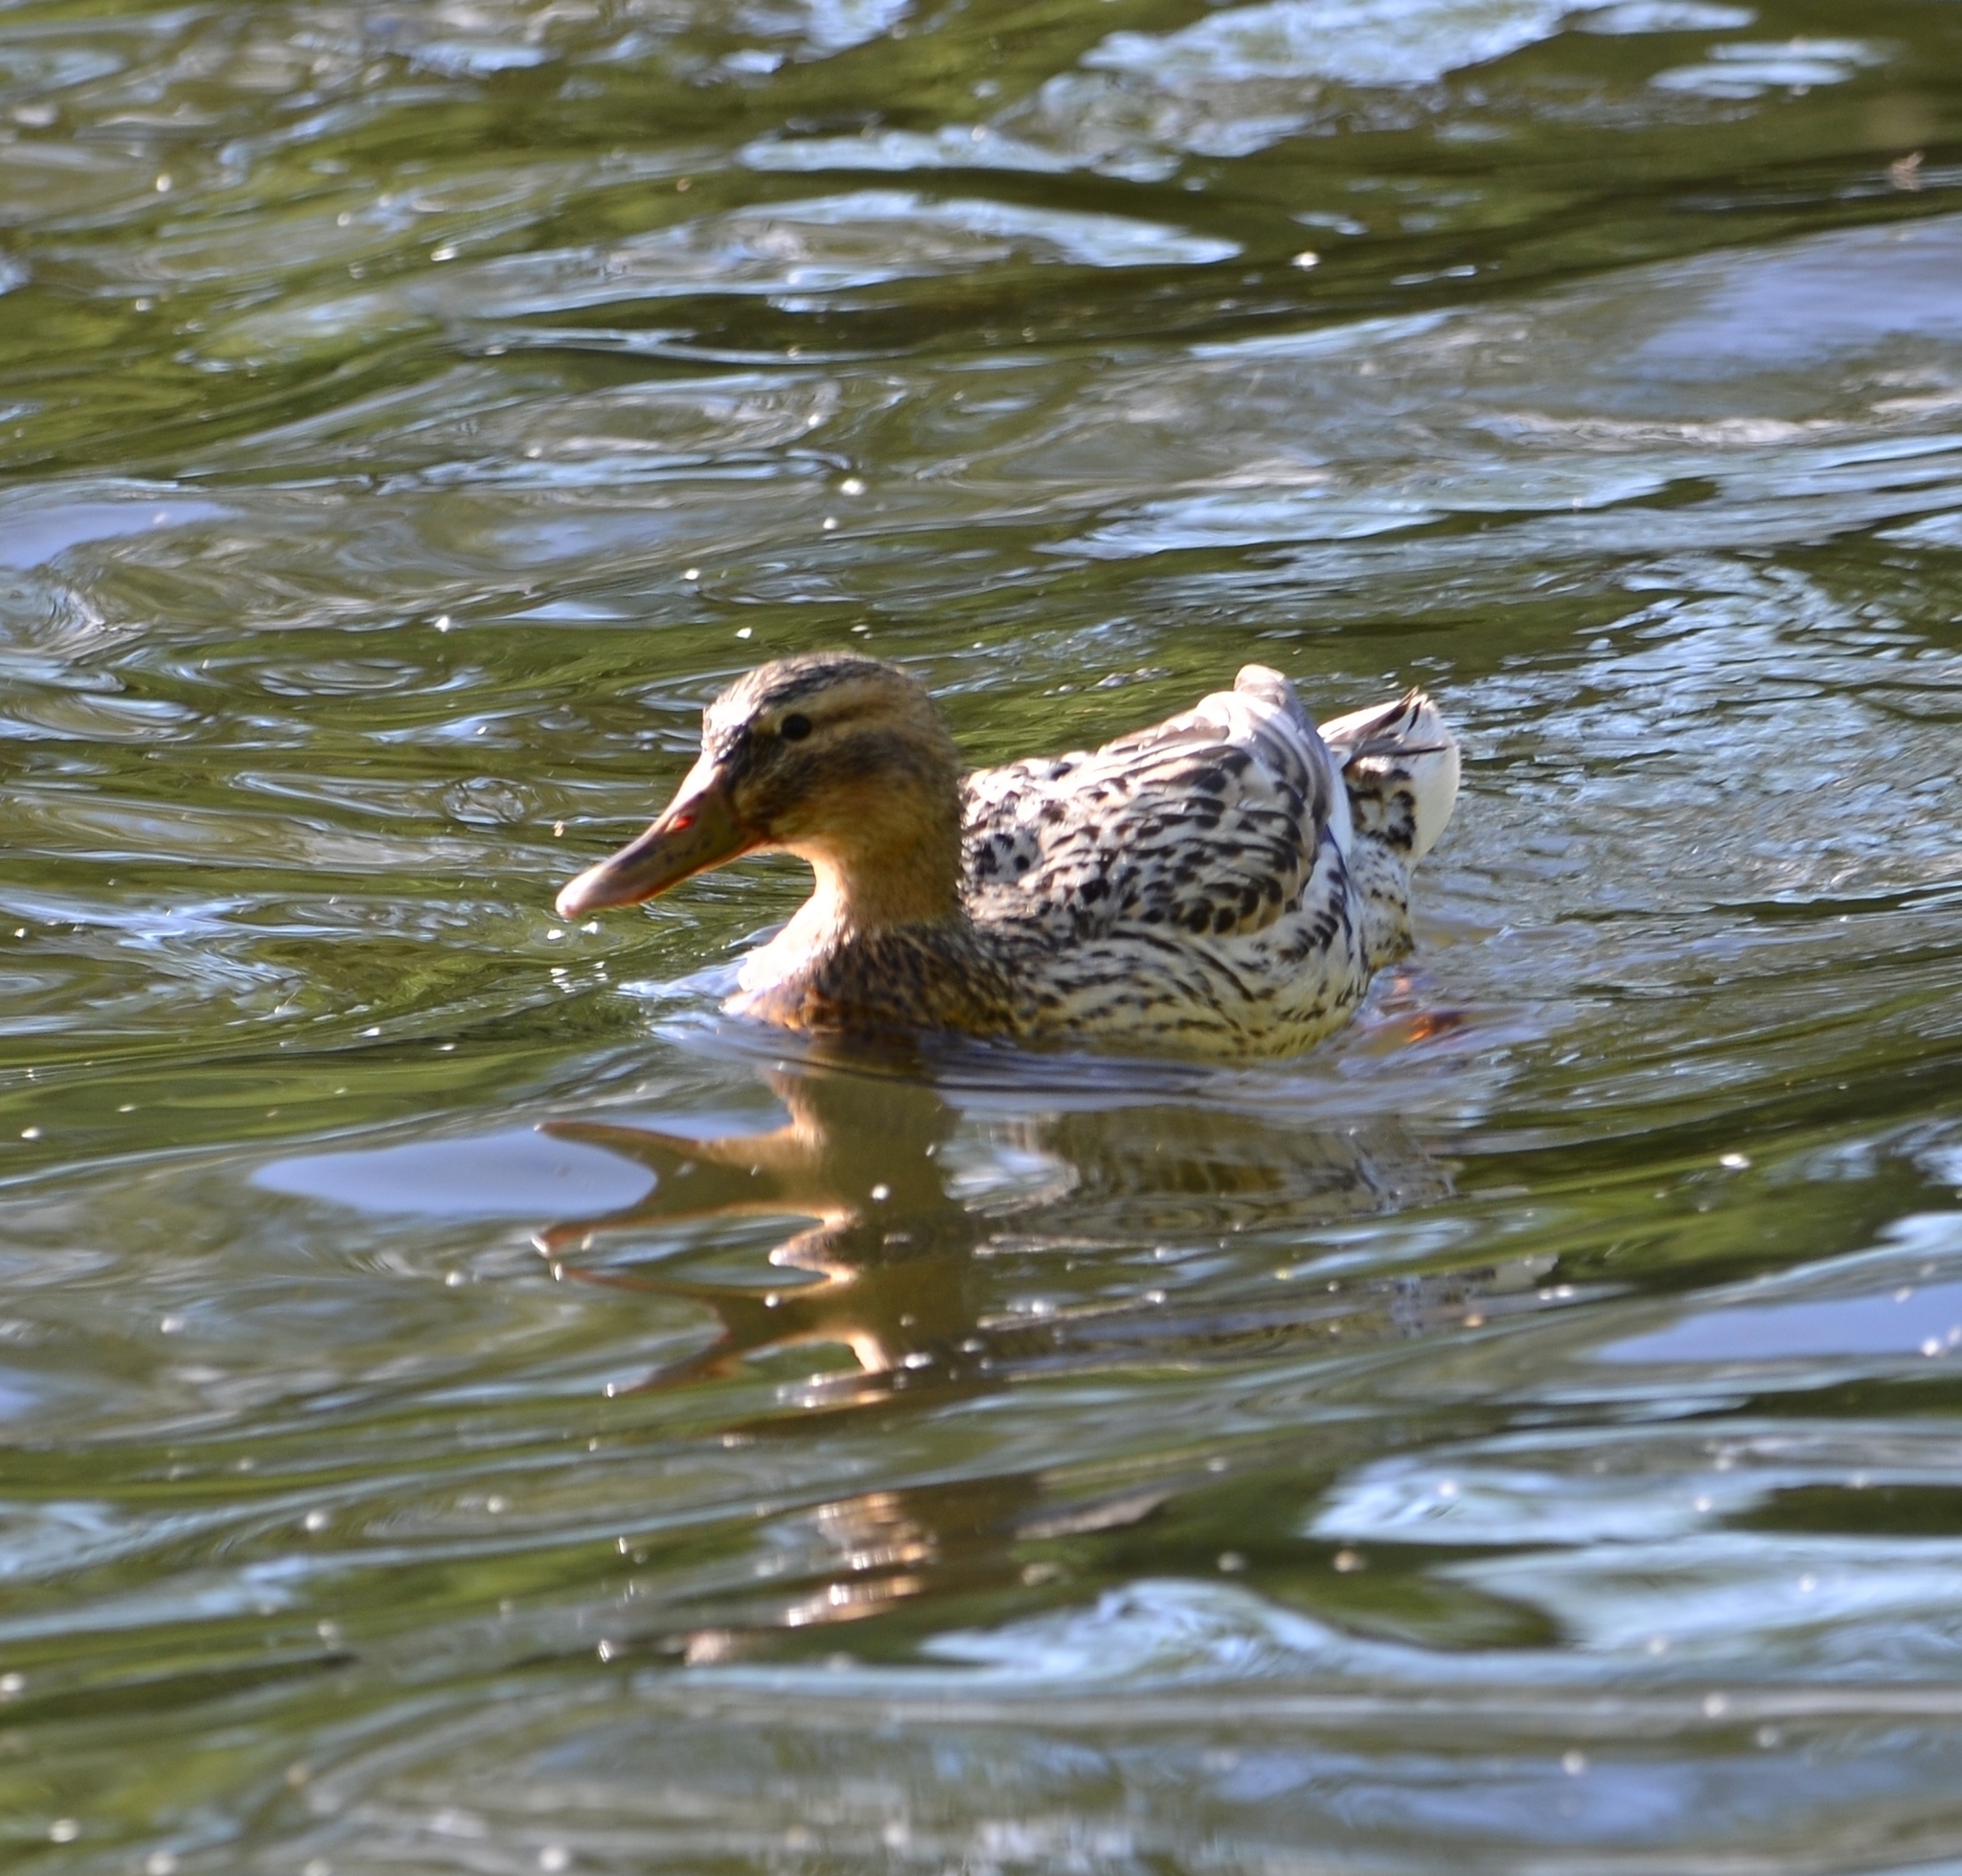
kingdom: Animalia
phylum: Chordata
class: Aves
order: Anseriformes
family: Anatidae
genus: Anas
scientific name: Anas platyrhynchos
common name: Mallard
